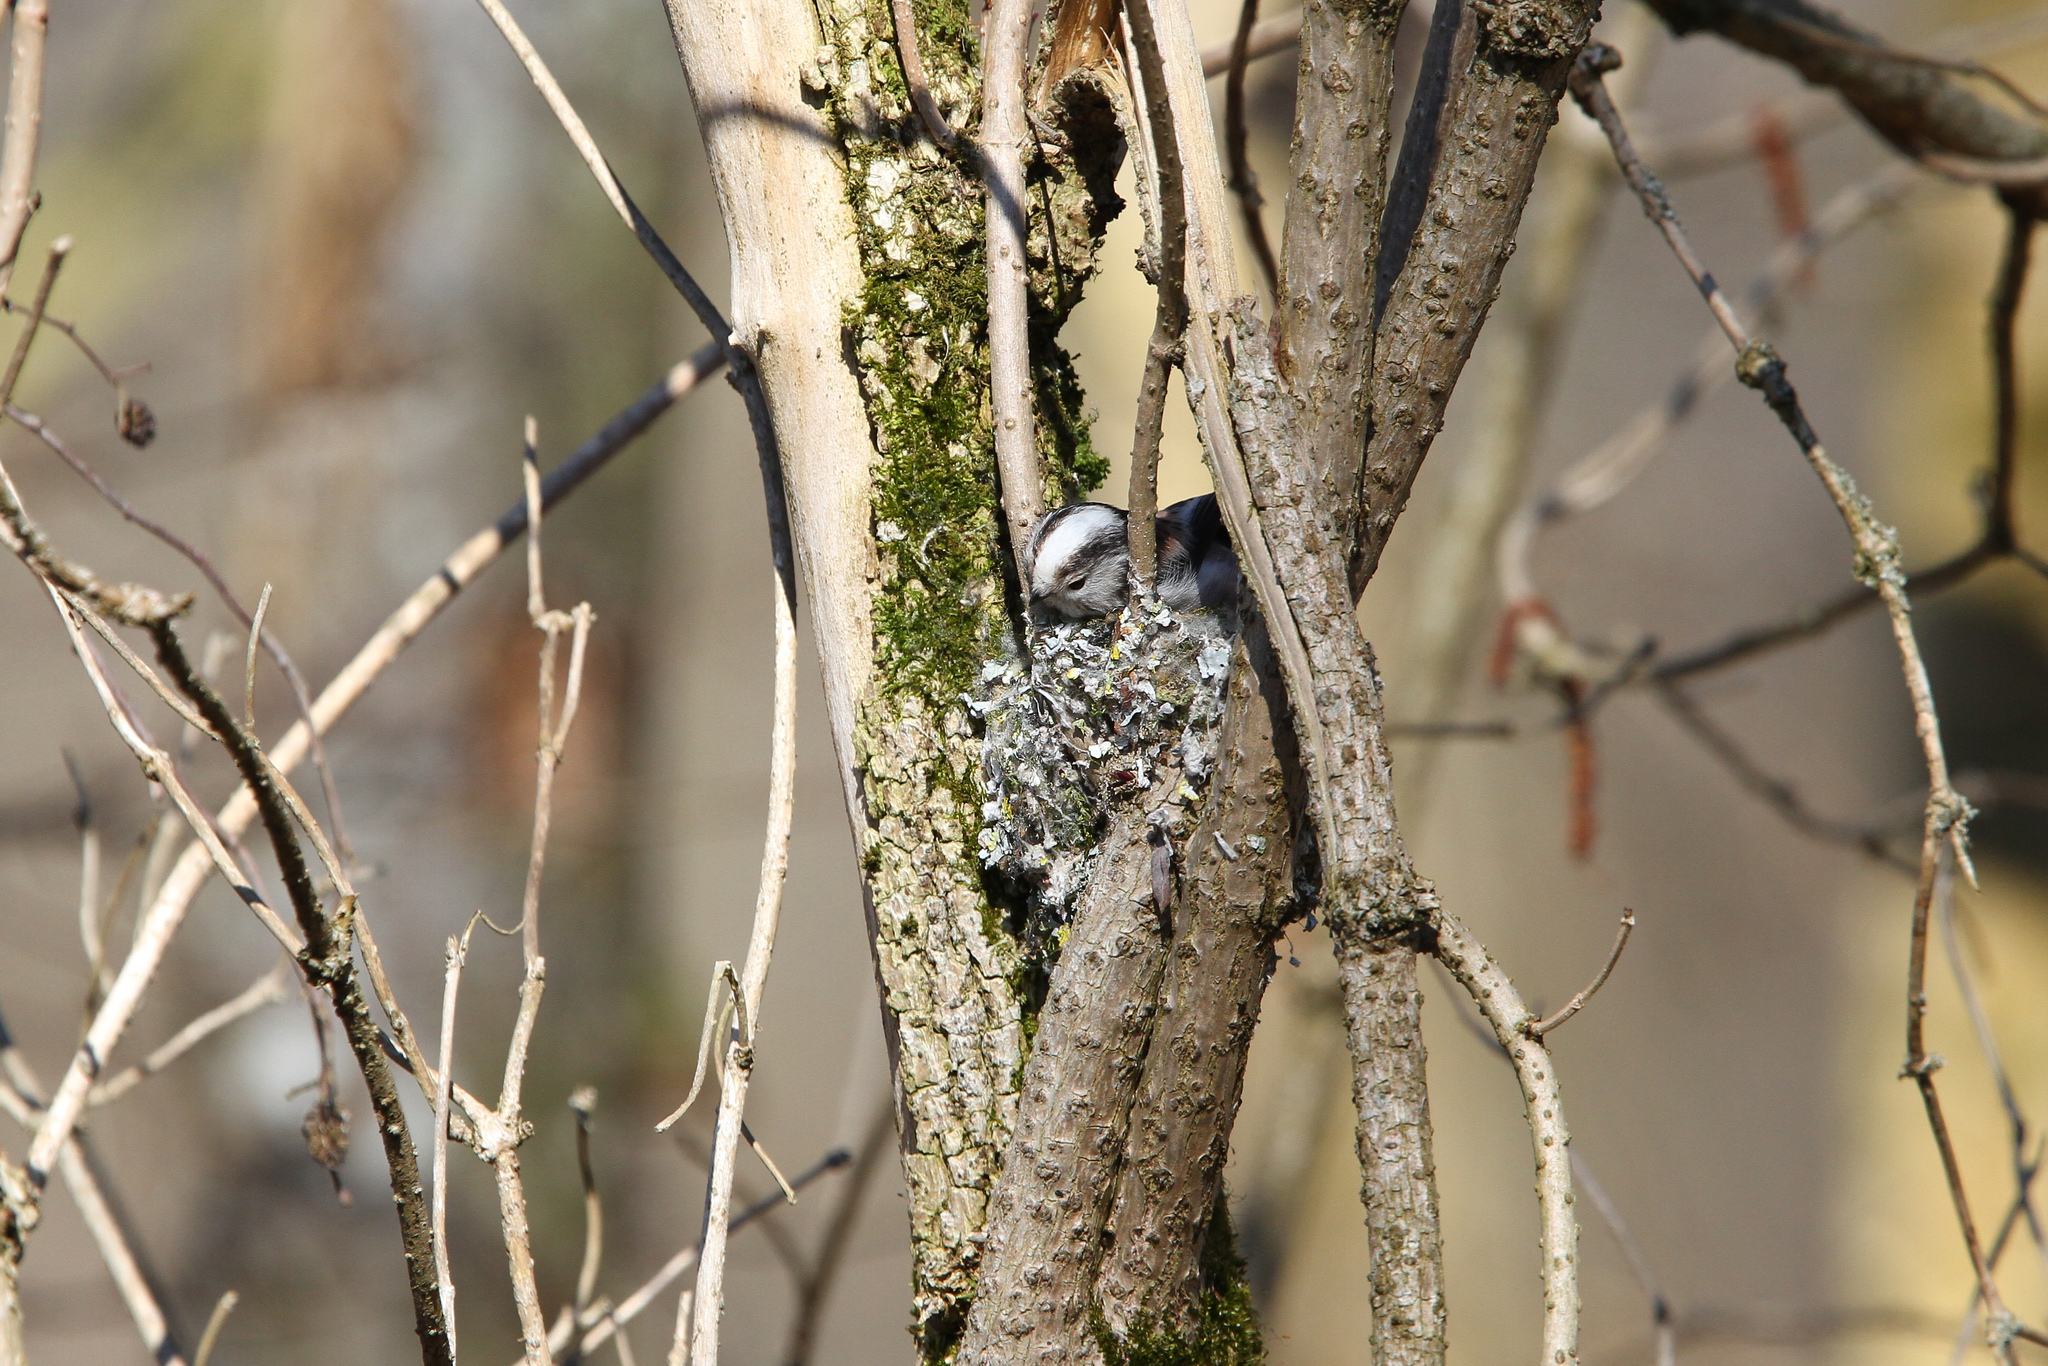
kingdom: Animalia
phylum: Chordata
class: Aves
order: Passeriformes
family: Aegithalidae
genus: Aegithalos
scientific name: Aegithalos caudatus
